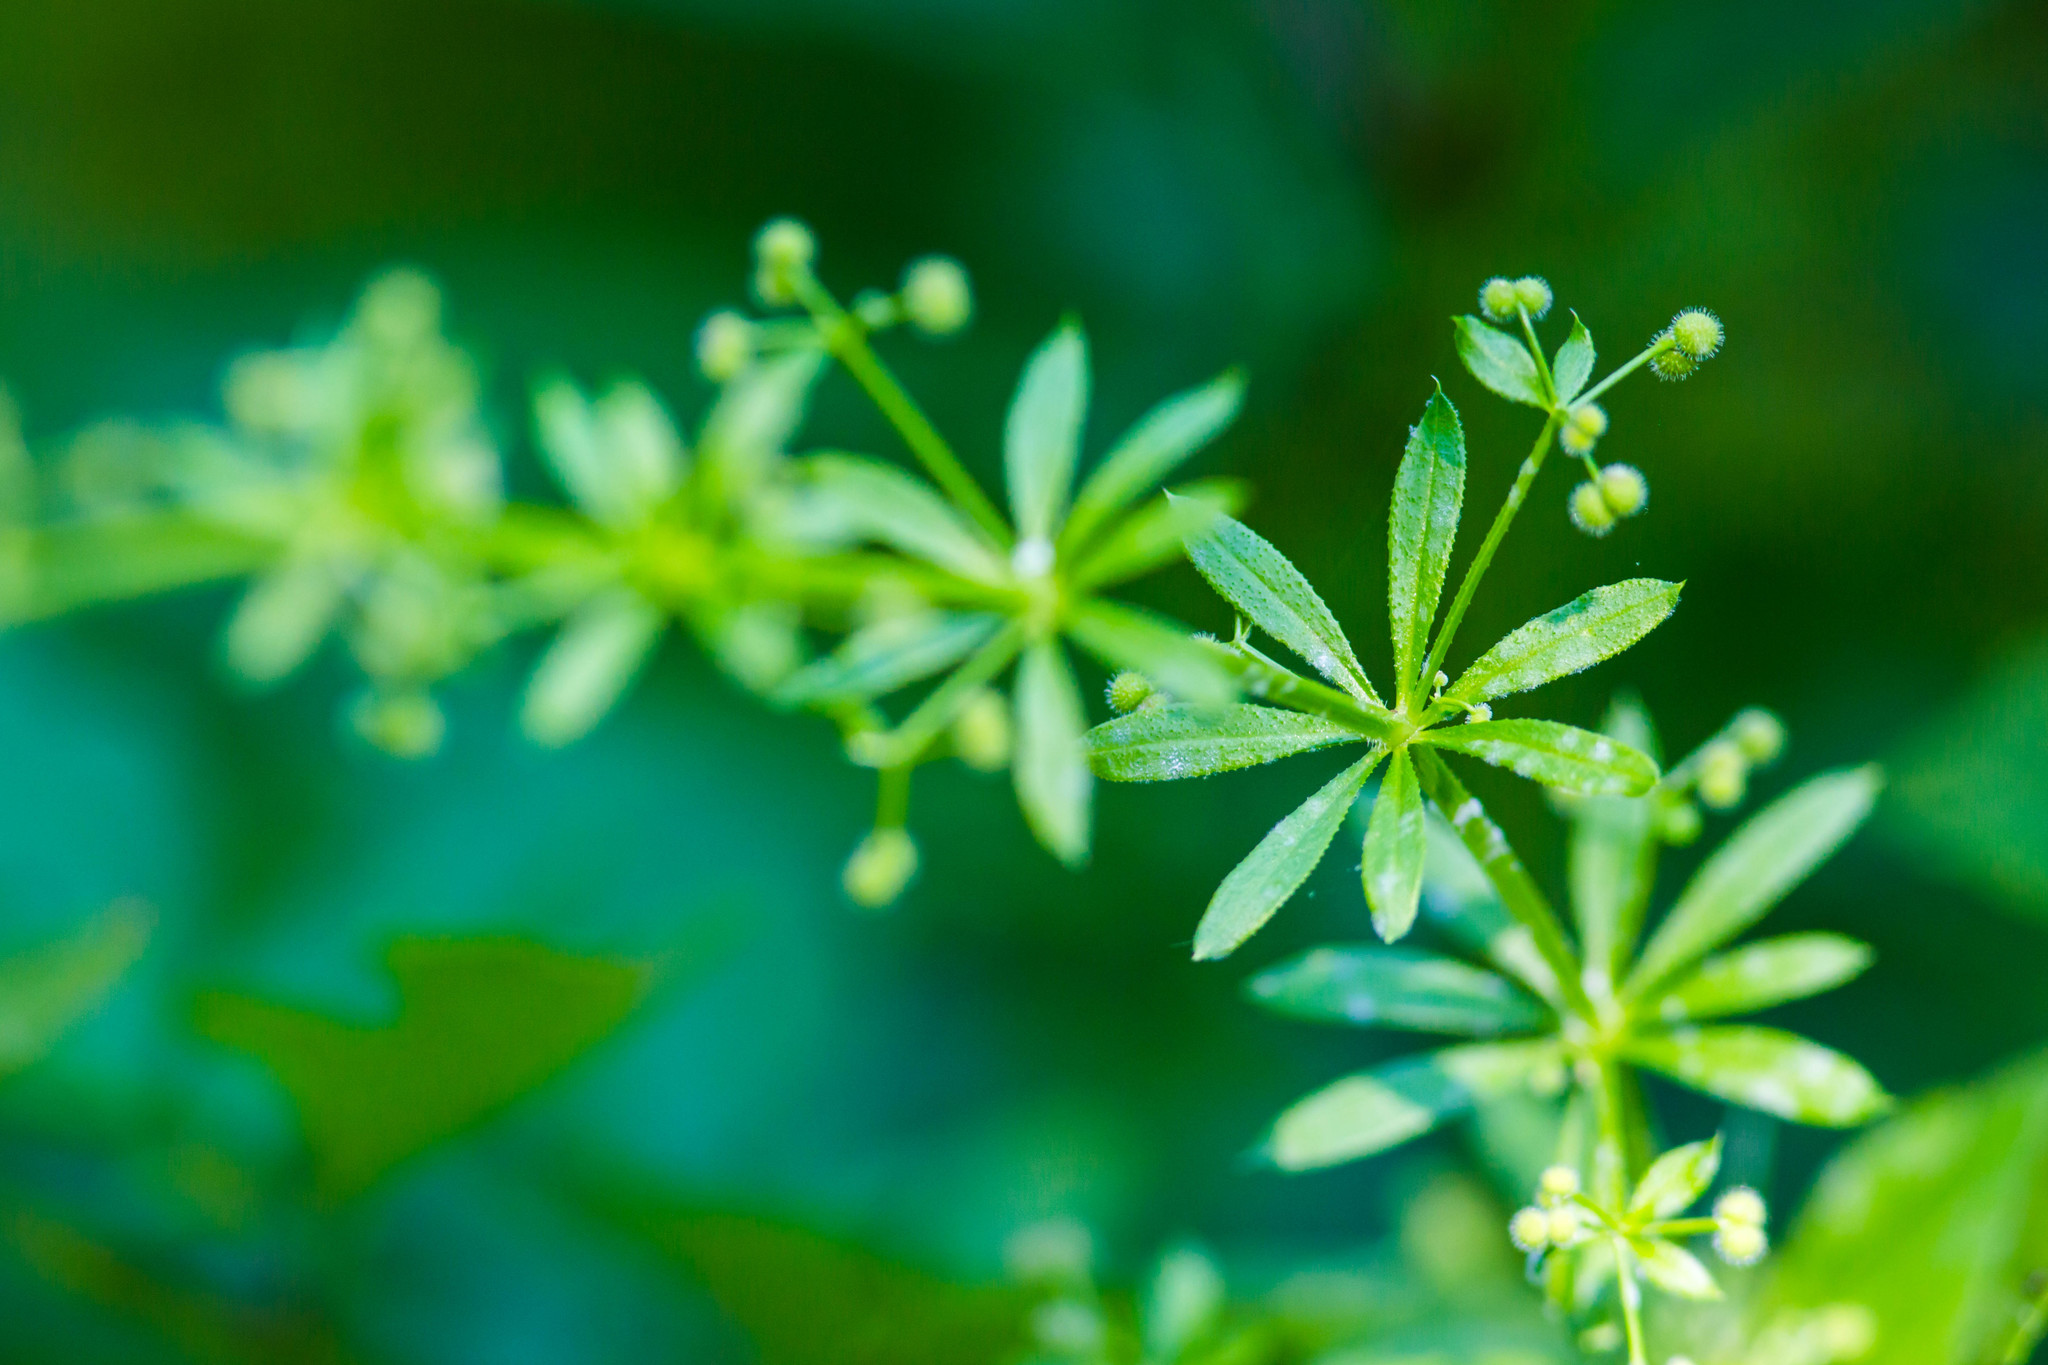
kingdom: Plantae
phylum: Tracheophyta
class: Magnoliopsida
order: Gentianales
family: Rubiaceae
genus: Galium
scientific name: Galium aparine
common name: Cleavers
